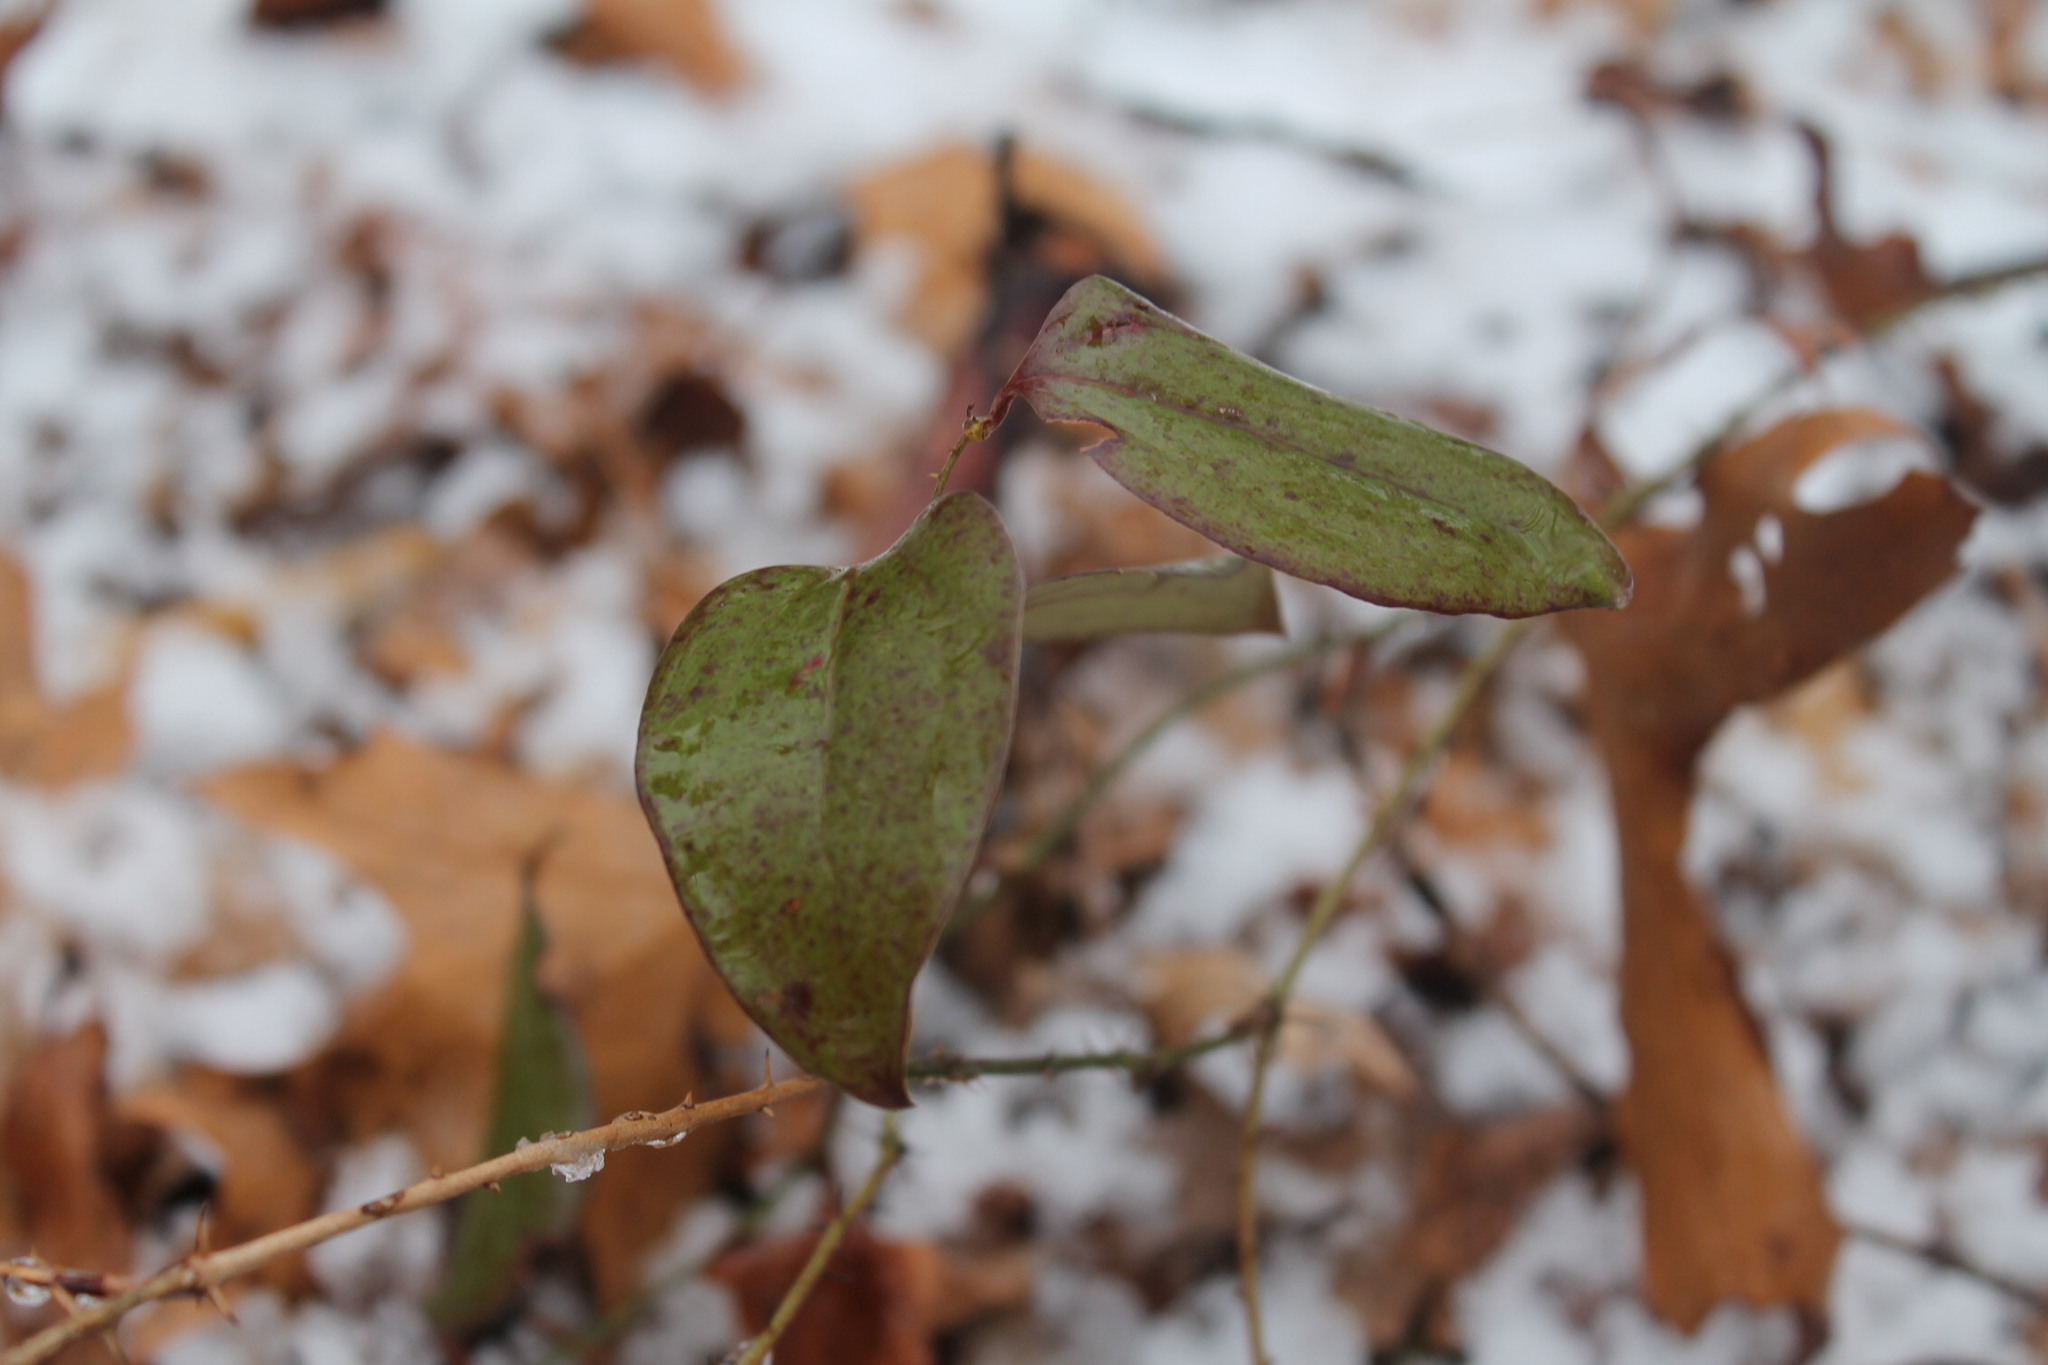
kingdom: Plantae
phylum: Tracheophyta
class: Liliopsida
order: Liliales
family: Smilacaceae
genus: Smilax
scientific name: Smilax glauca
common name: Cat greenbrier
